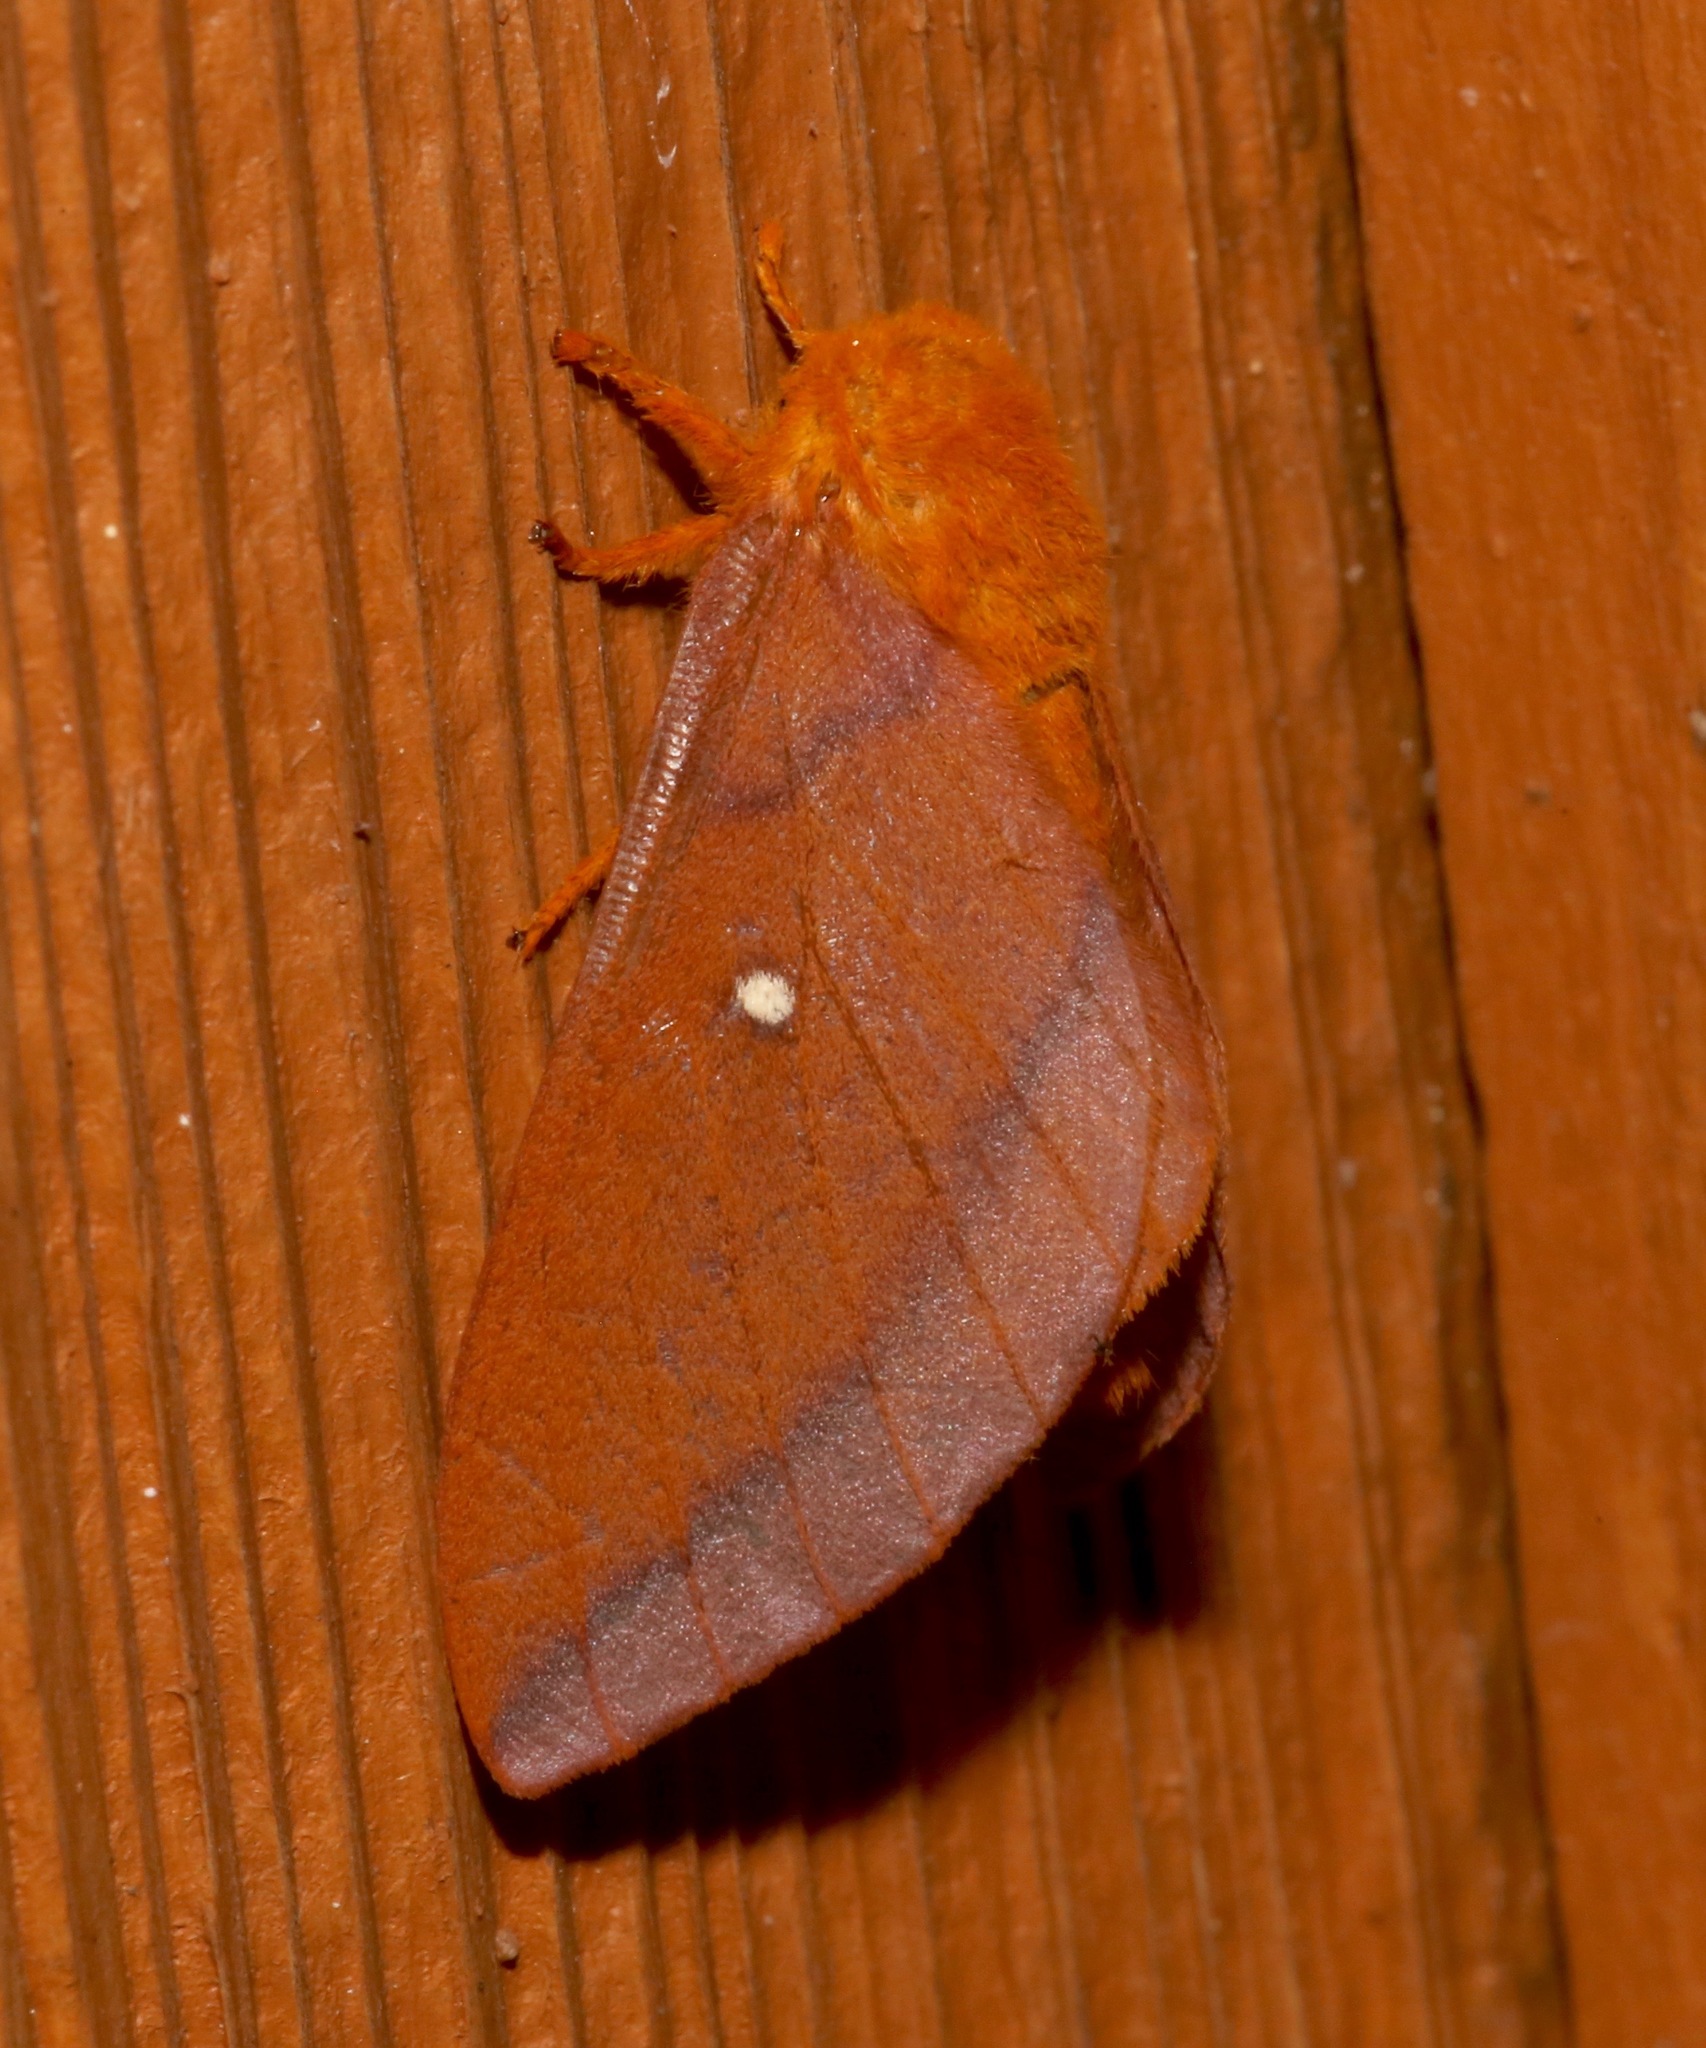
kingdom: Animalia
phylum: Arthropoda
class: Insecta
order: Lepidoptera
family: Saturniidae
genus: Anisota
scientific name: Anisota virginiensis
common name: Pink striped oakworm moth
